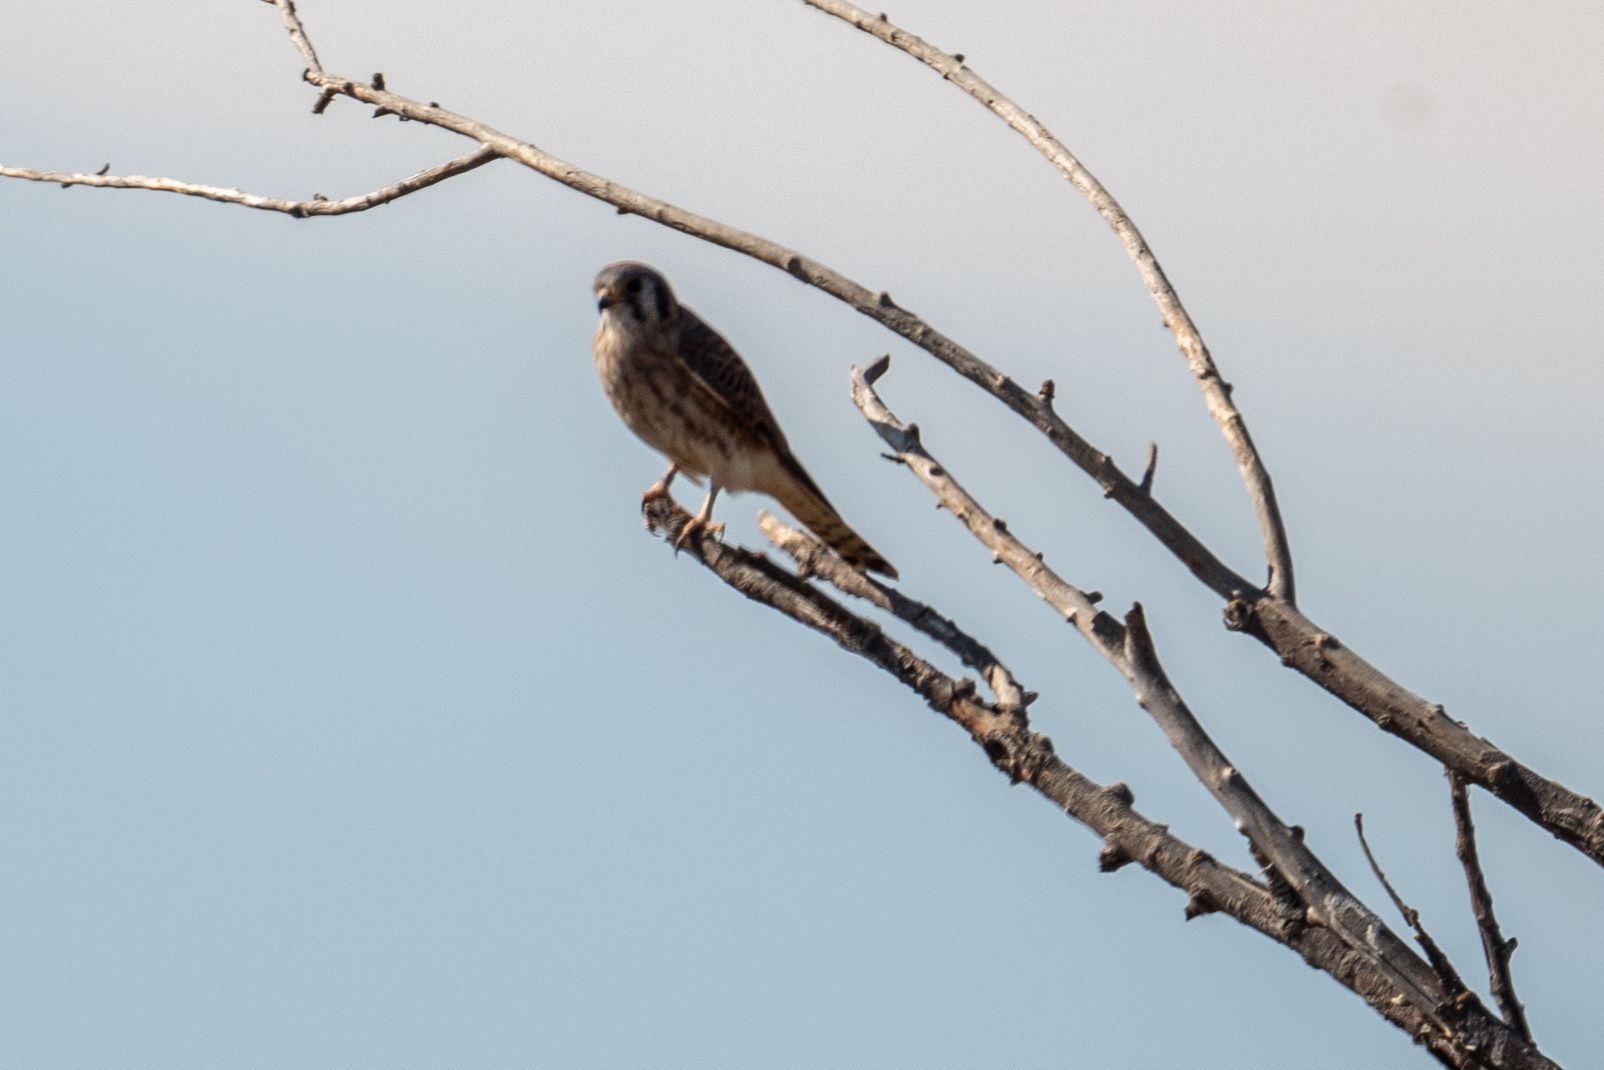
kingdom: Animalia
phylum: Chordata
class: Aves
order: Falconiformes
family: Falconidae
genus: Falco
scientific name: Falco sparverius
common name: American kestrel
